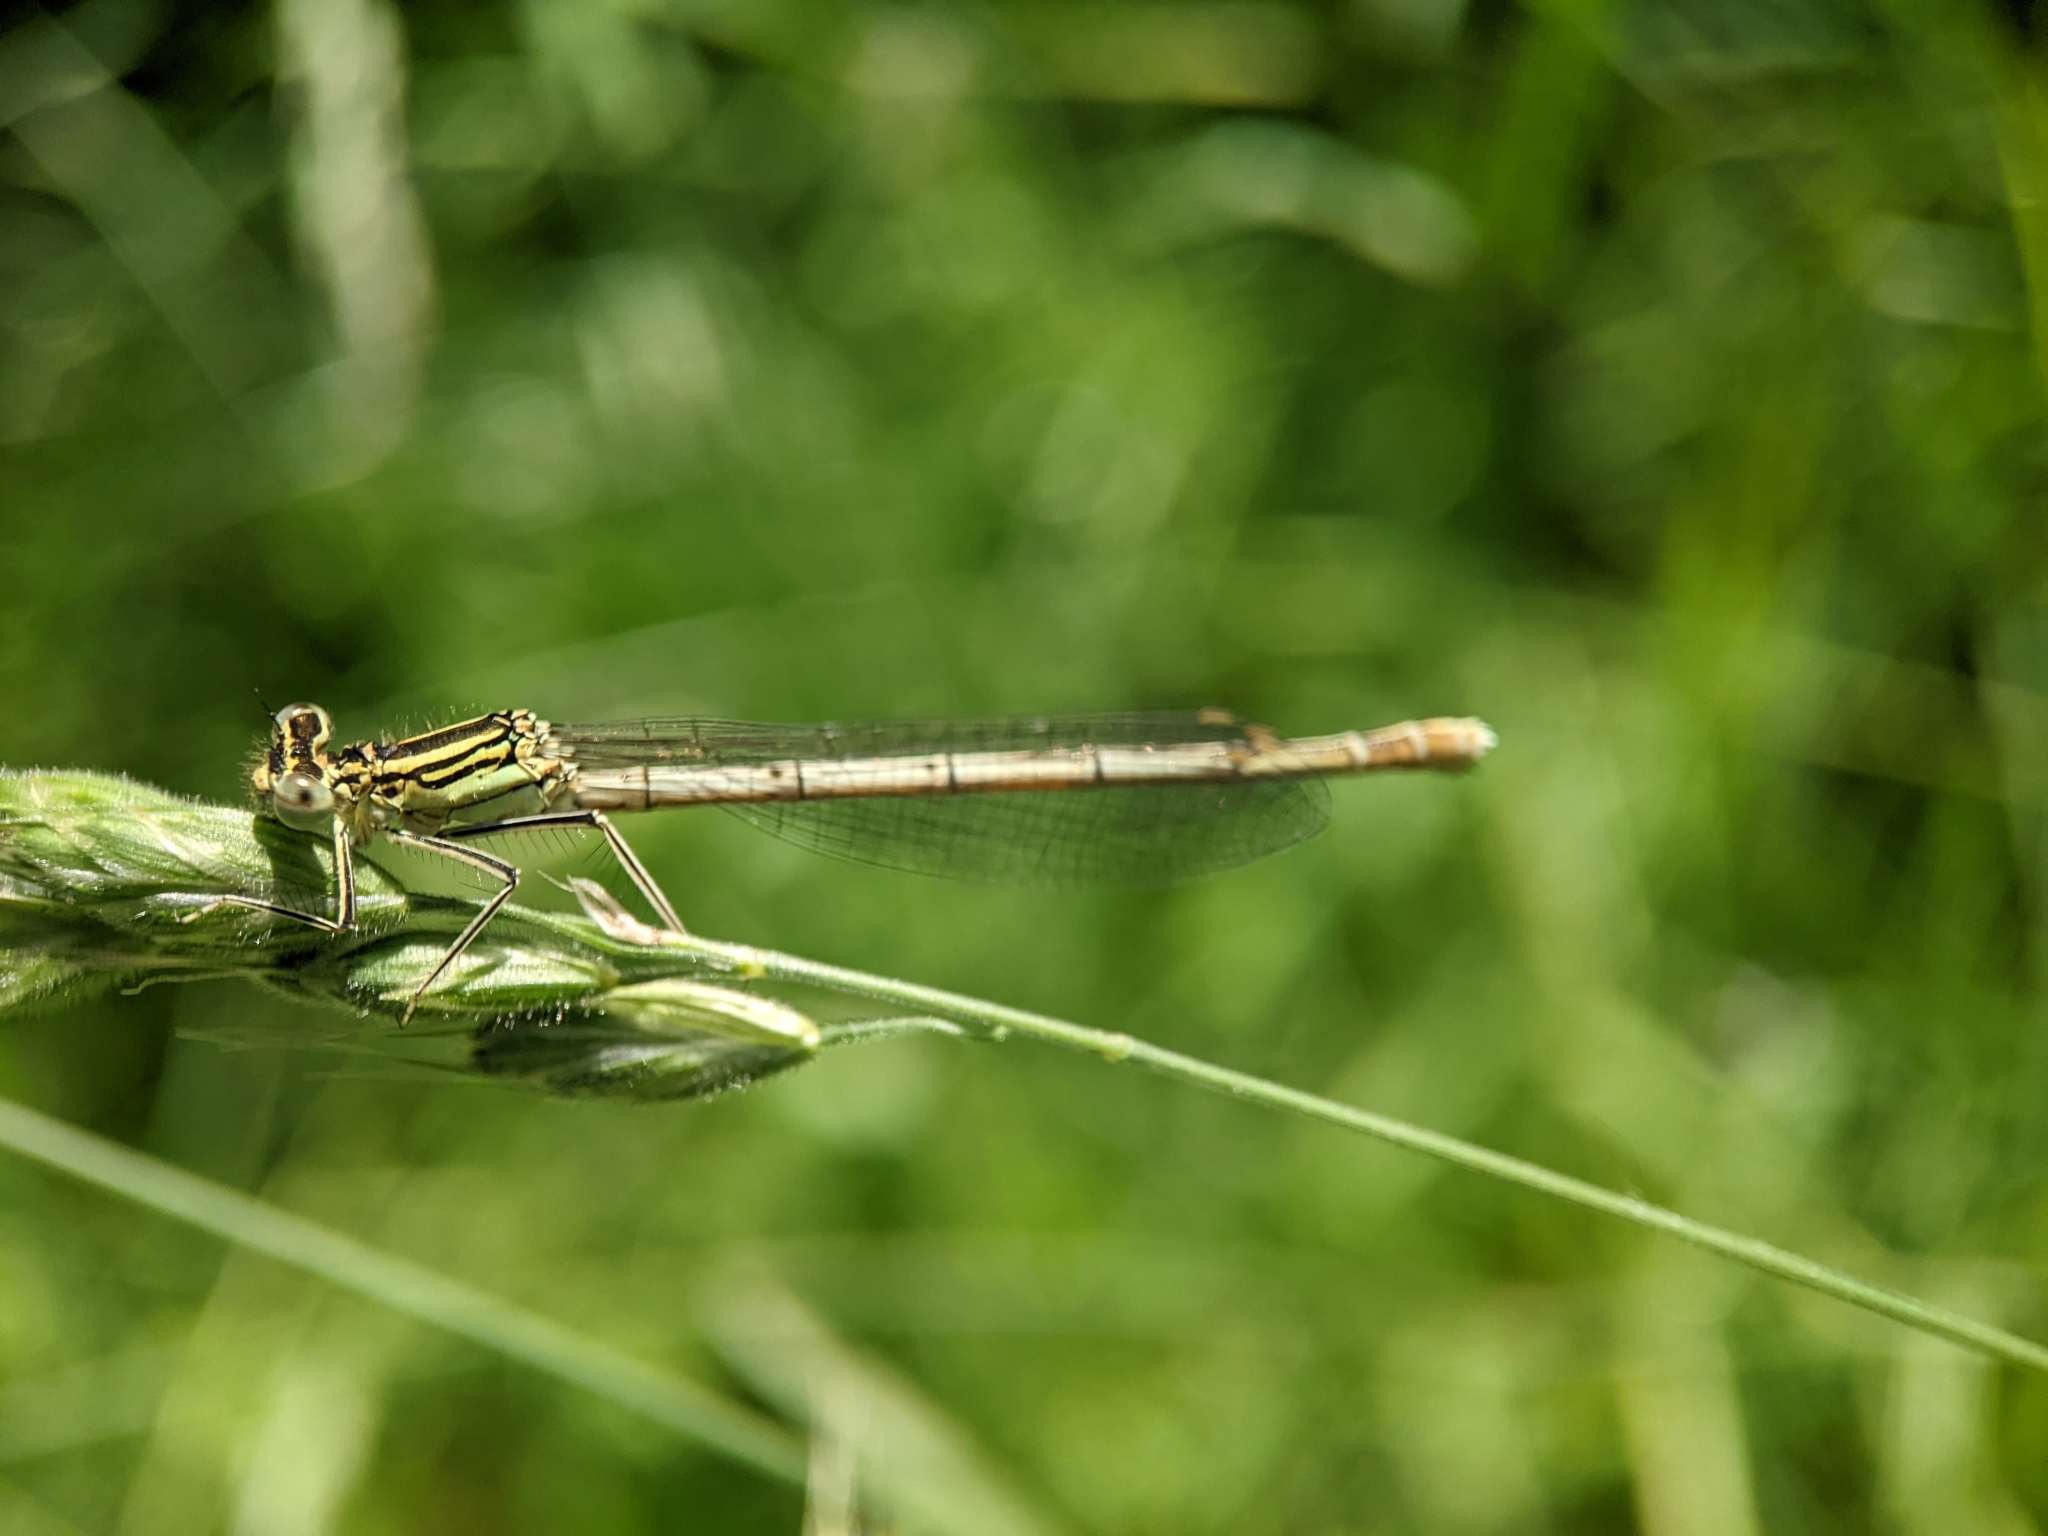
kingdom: Animalia
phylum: Arthropoda
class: Insecta
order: Odonata
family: Platycnemididae
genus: Platycnemis
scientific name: Platycnemis pennipes
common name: White-legged damselfly
